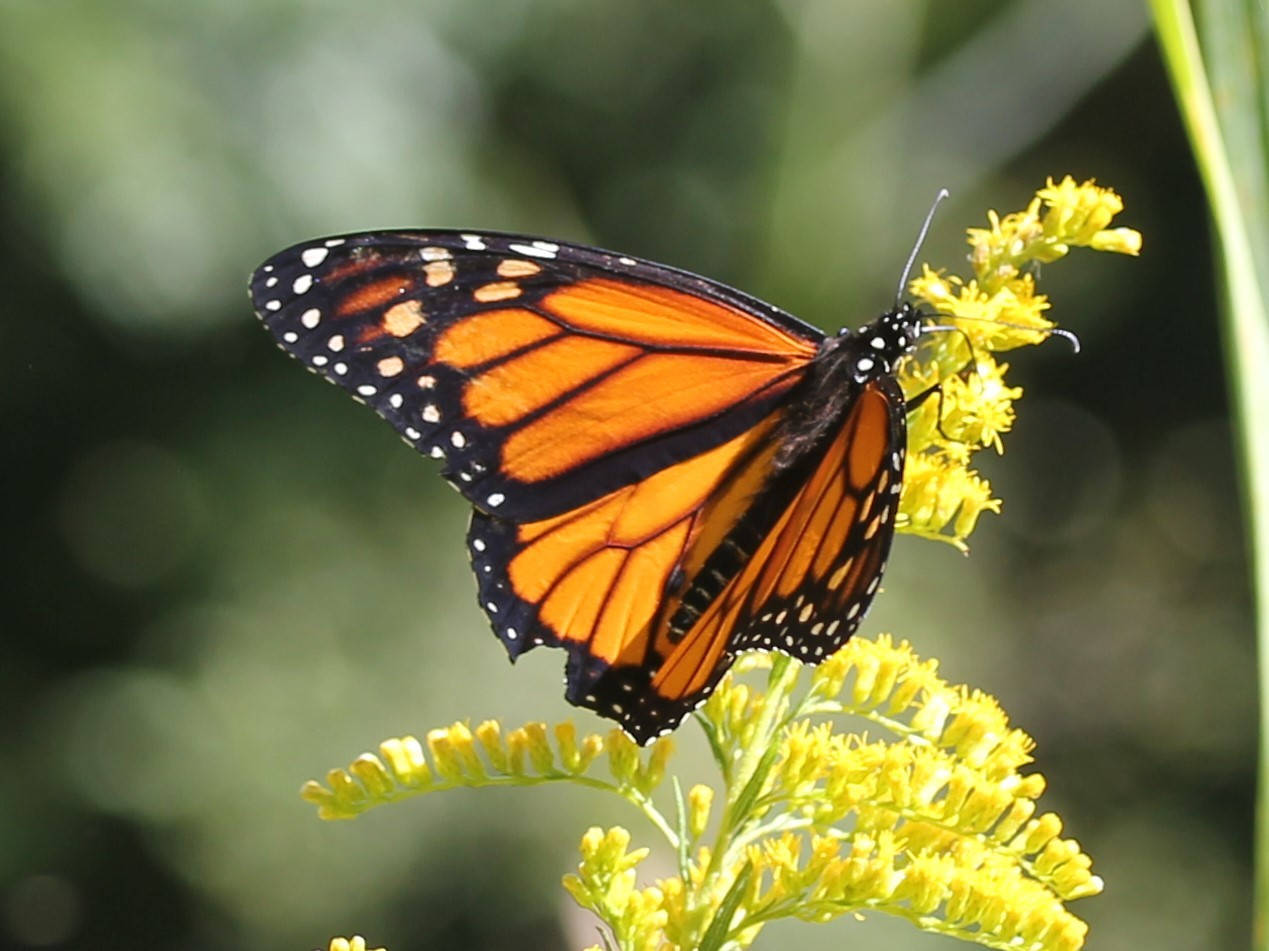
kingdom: Animalia
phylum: Arthropoda
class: Insecta
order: Lepidoptera
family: Nymphalidae
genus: Danaus
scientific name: Danaus plexippus
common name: Monarch
